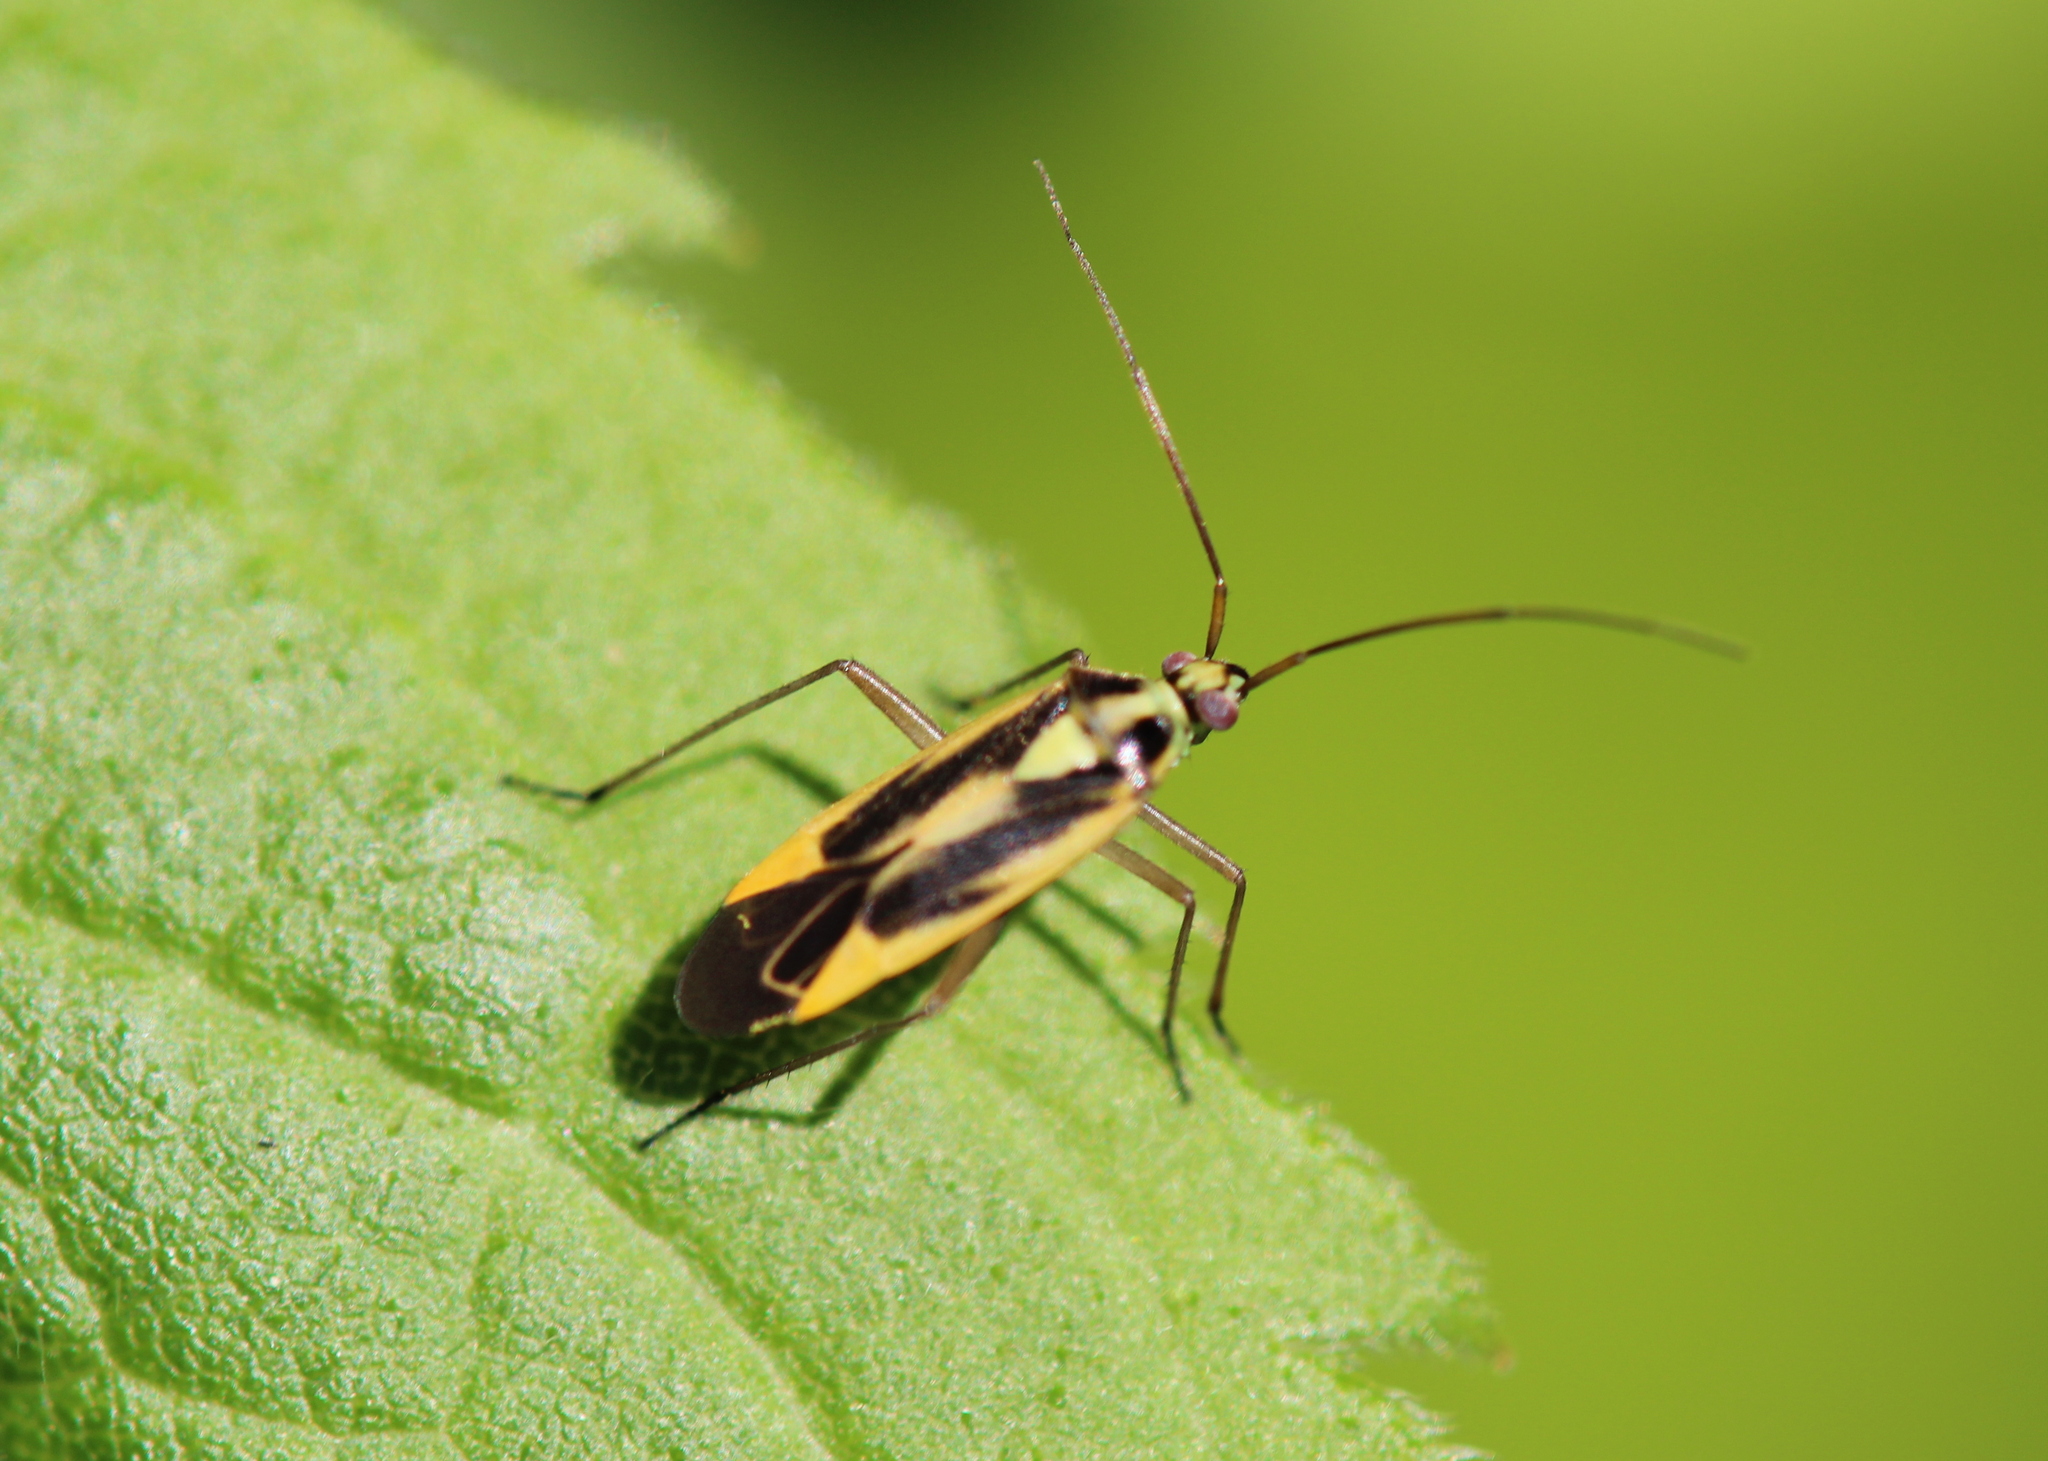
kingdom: Animalia
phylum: Arthropoda
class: Insecta
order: Hemiptera
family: Miridae
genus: Stenotus
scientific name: Stenotus binotatus
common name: Plant bug
